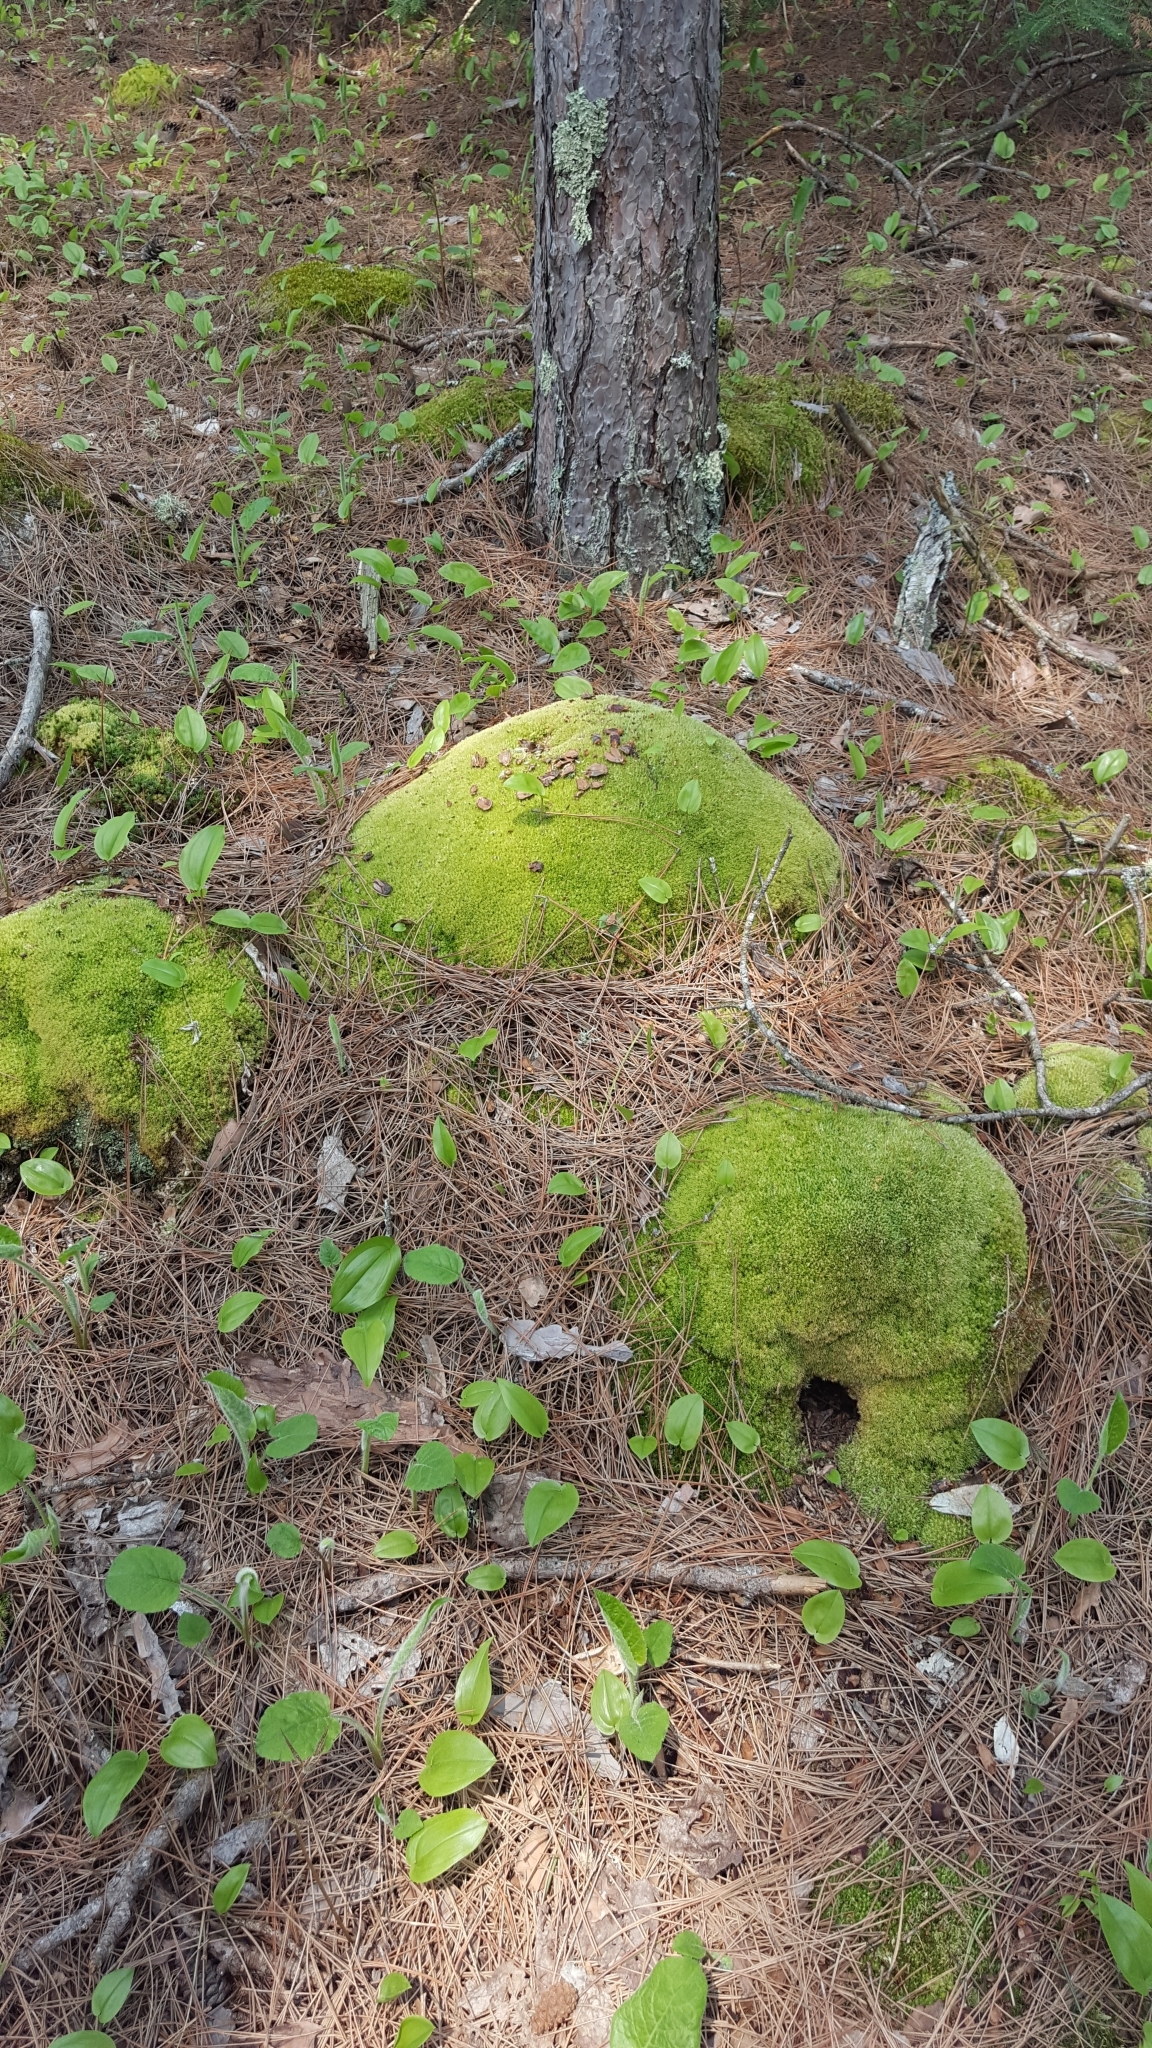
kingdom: Plantae
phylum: Bryophyta
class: Bryopsida
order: Dicranales
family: Leucobryaceae
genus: Leucobryum
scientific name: Leucobryum glaucum
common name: Large white-moss
